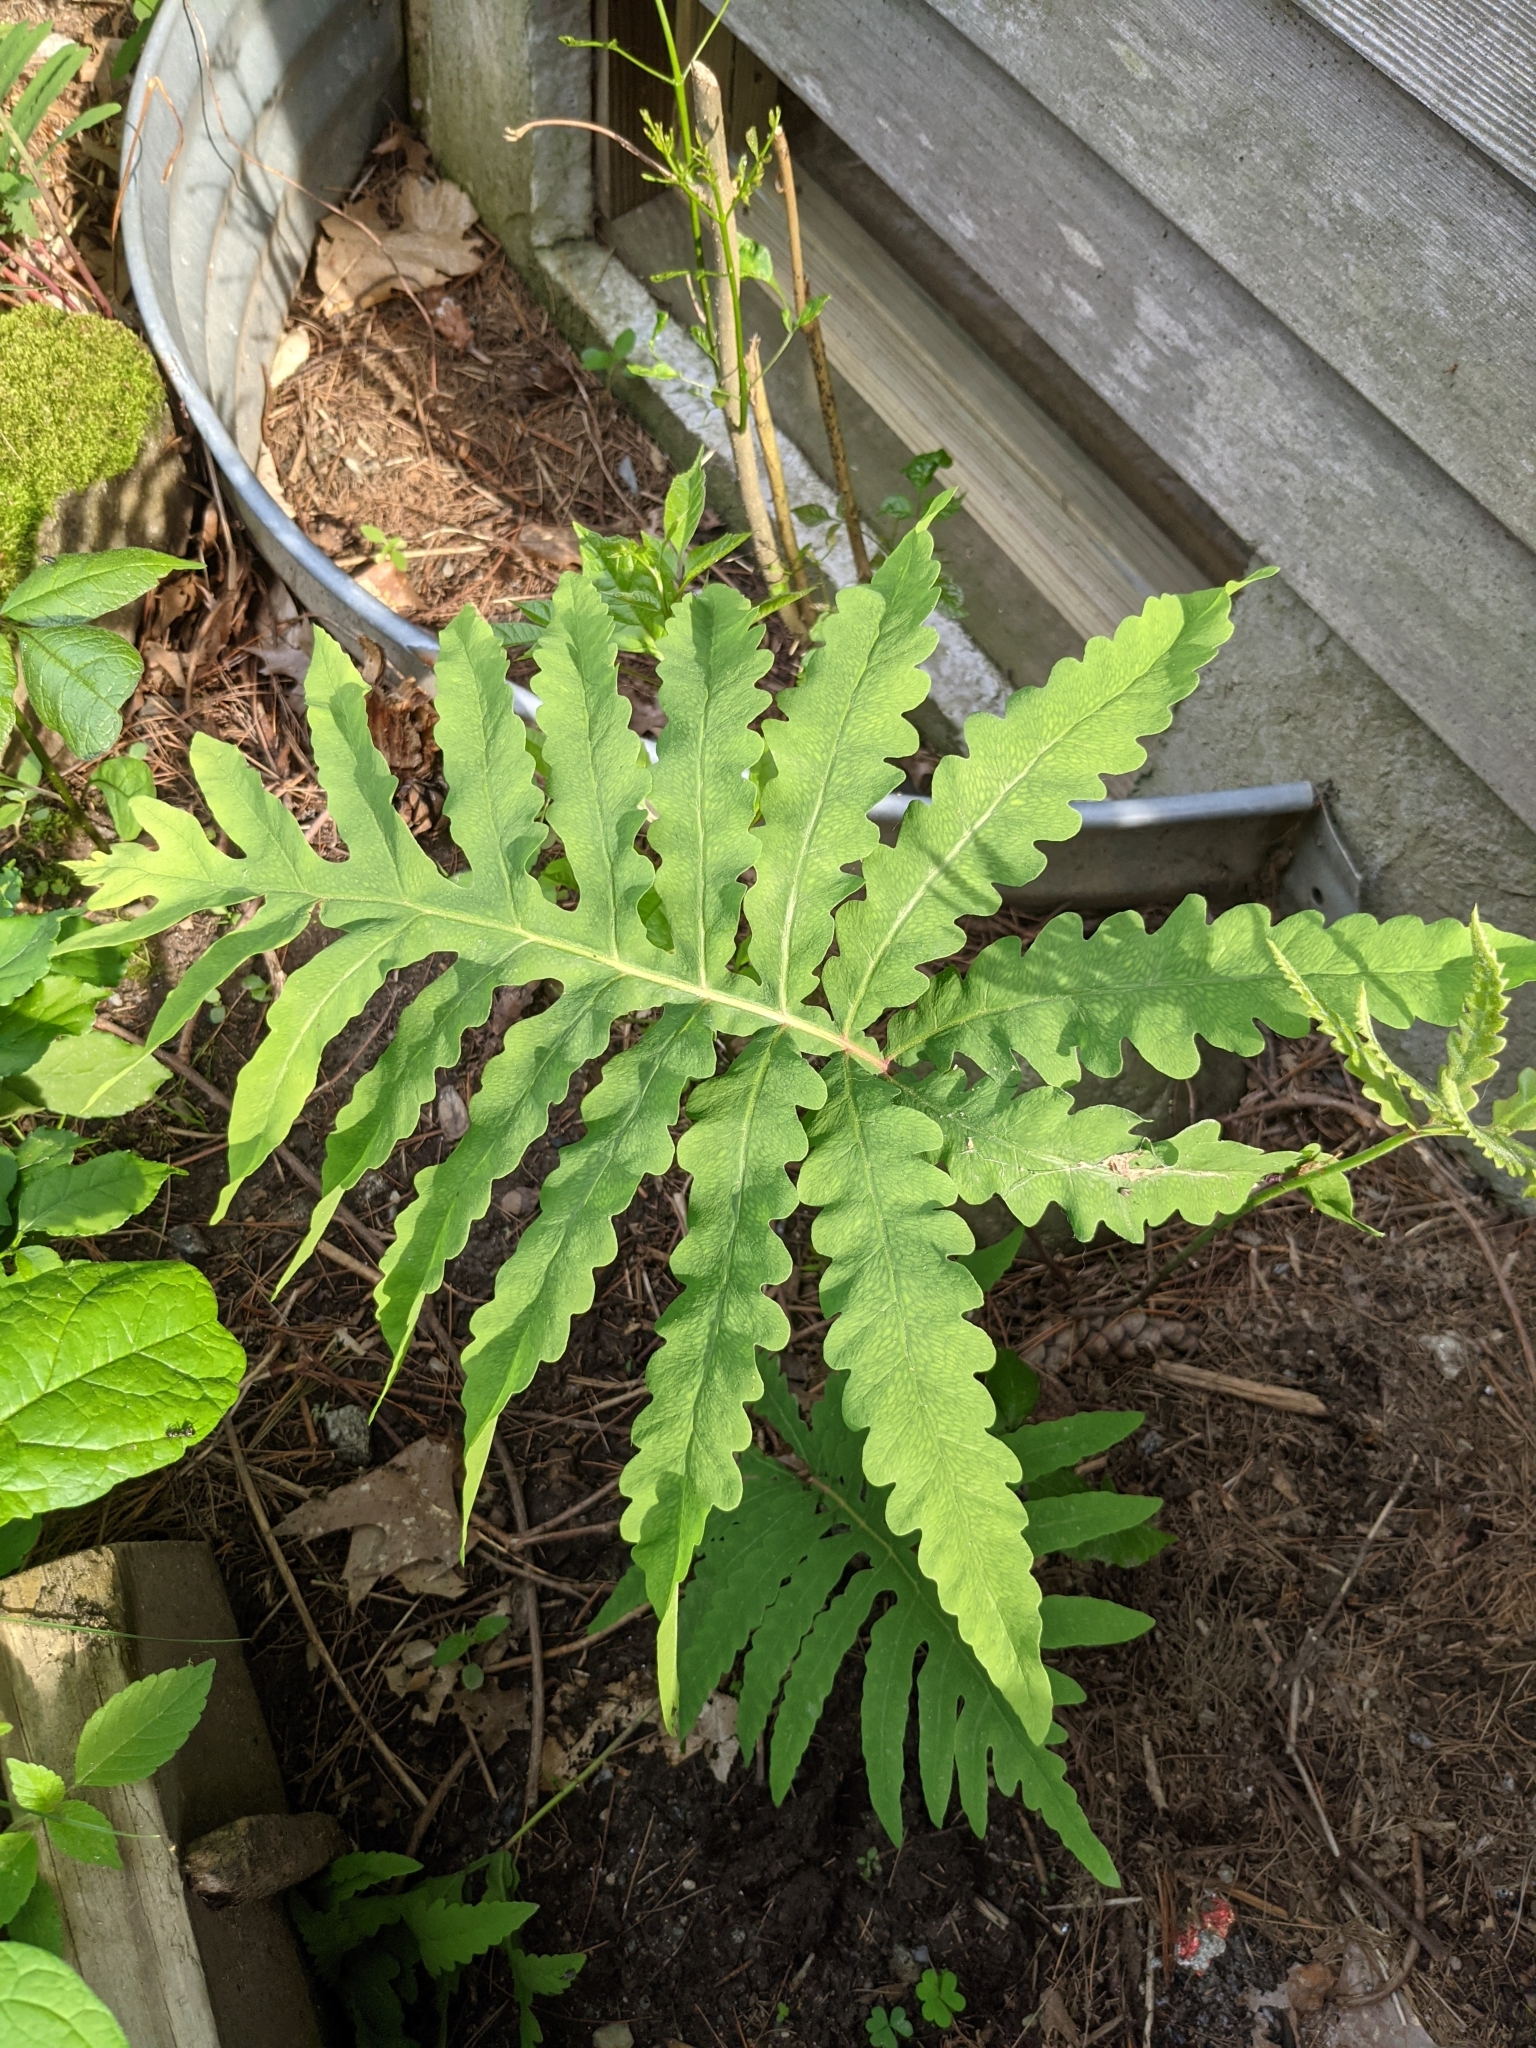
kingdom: Plantae
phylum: Tracheophyta
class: Polypodiopsida
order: Polypodiales
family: Onocleaceae
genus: Onoclea
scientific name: Onoclea sensibilis
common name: Sensitive fern
